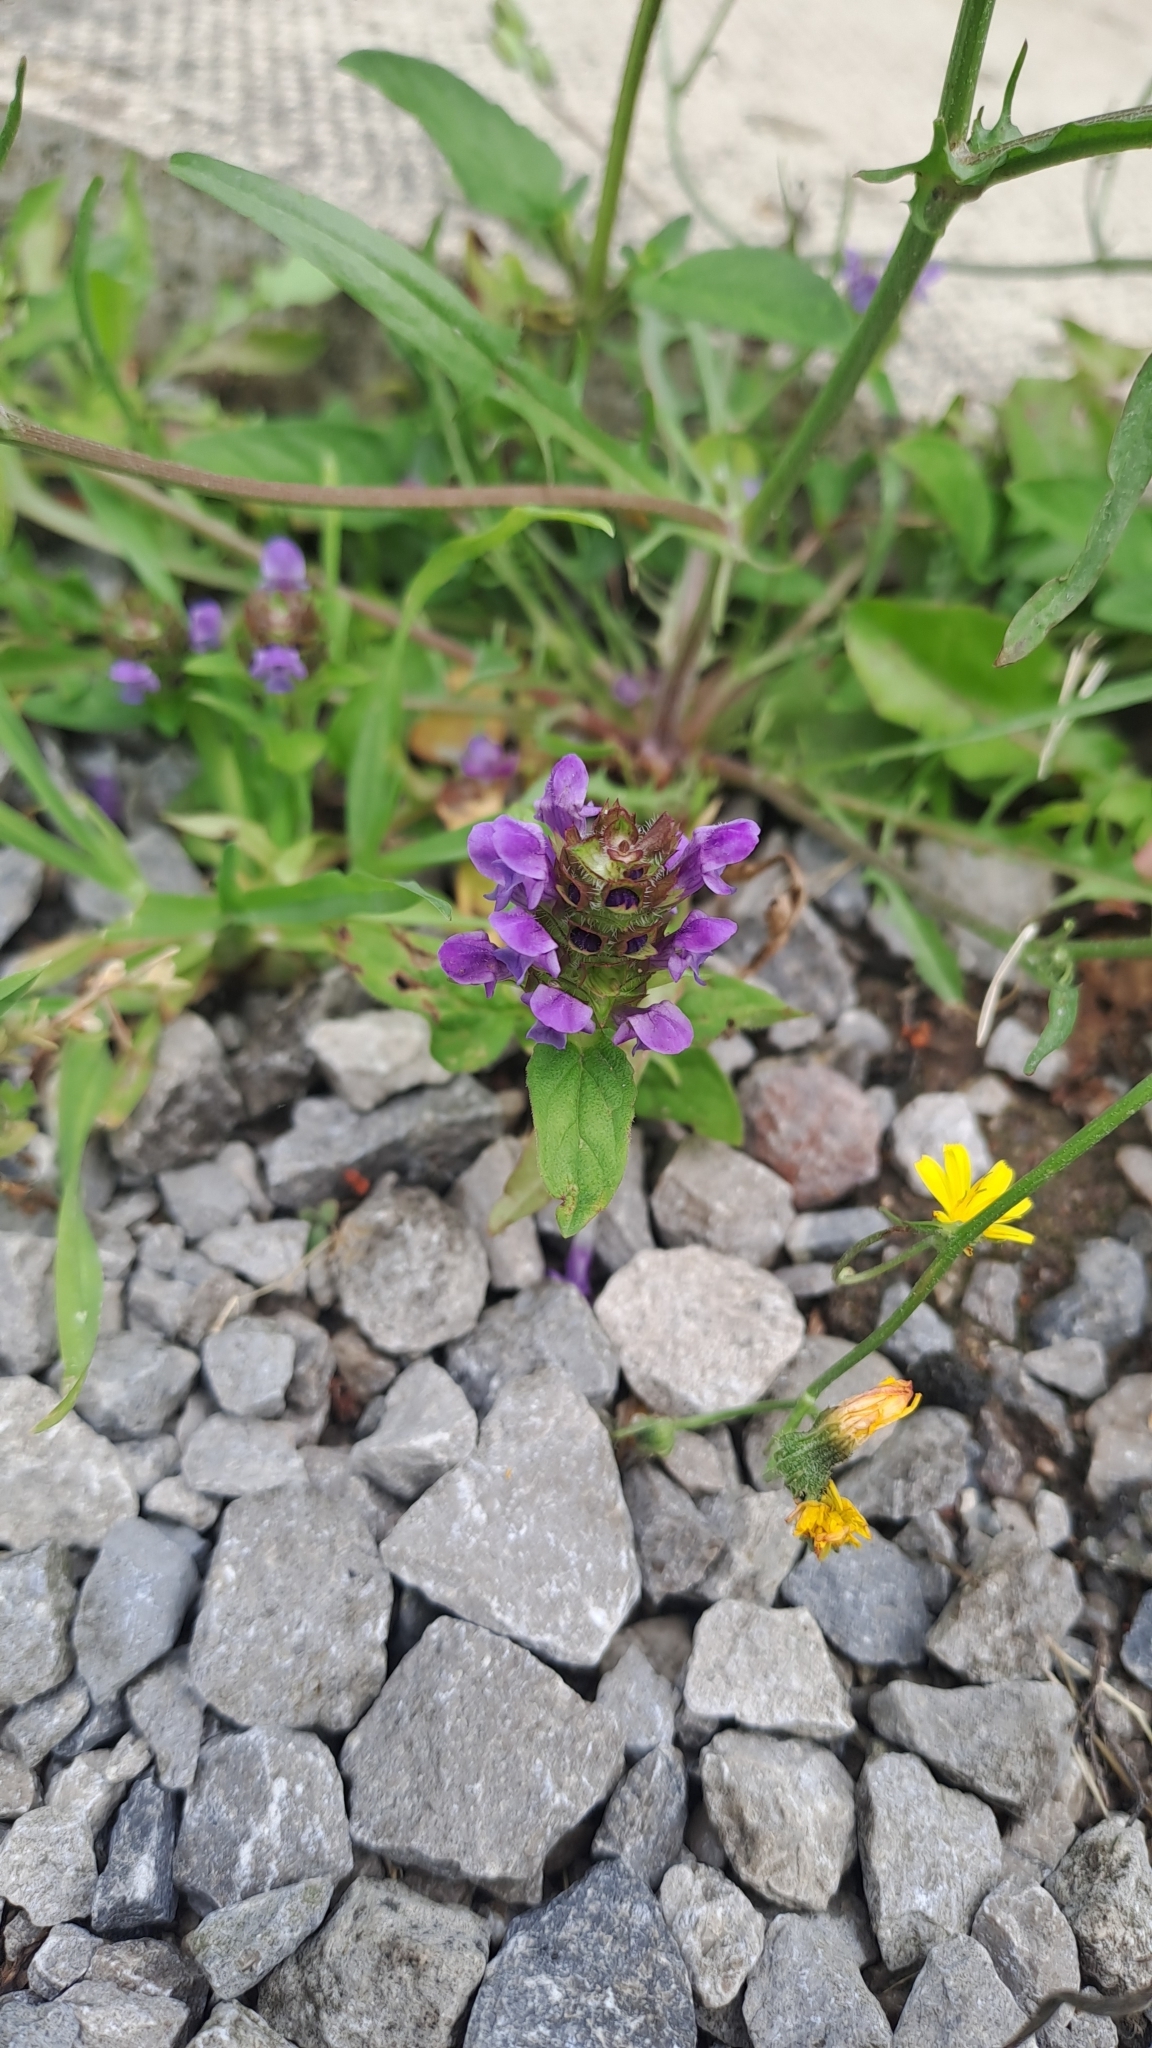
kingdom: Plantae
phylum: Tracheophyta
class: Magnoliopsida
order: Lamiales
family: Lamiaceae
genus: Prunella
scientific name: Prunella vulgaris
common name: Heal-all
